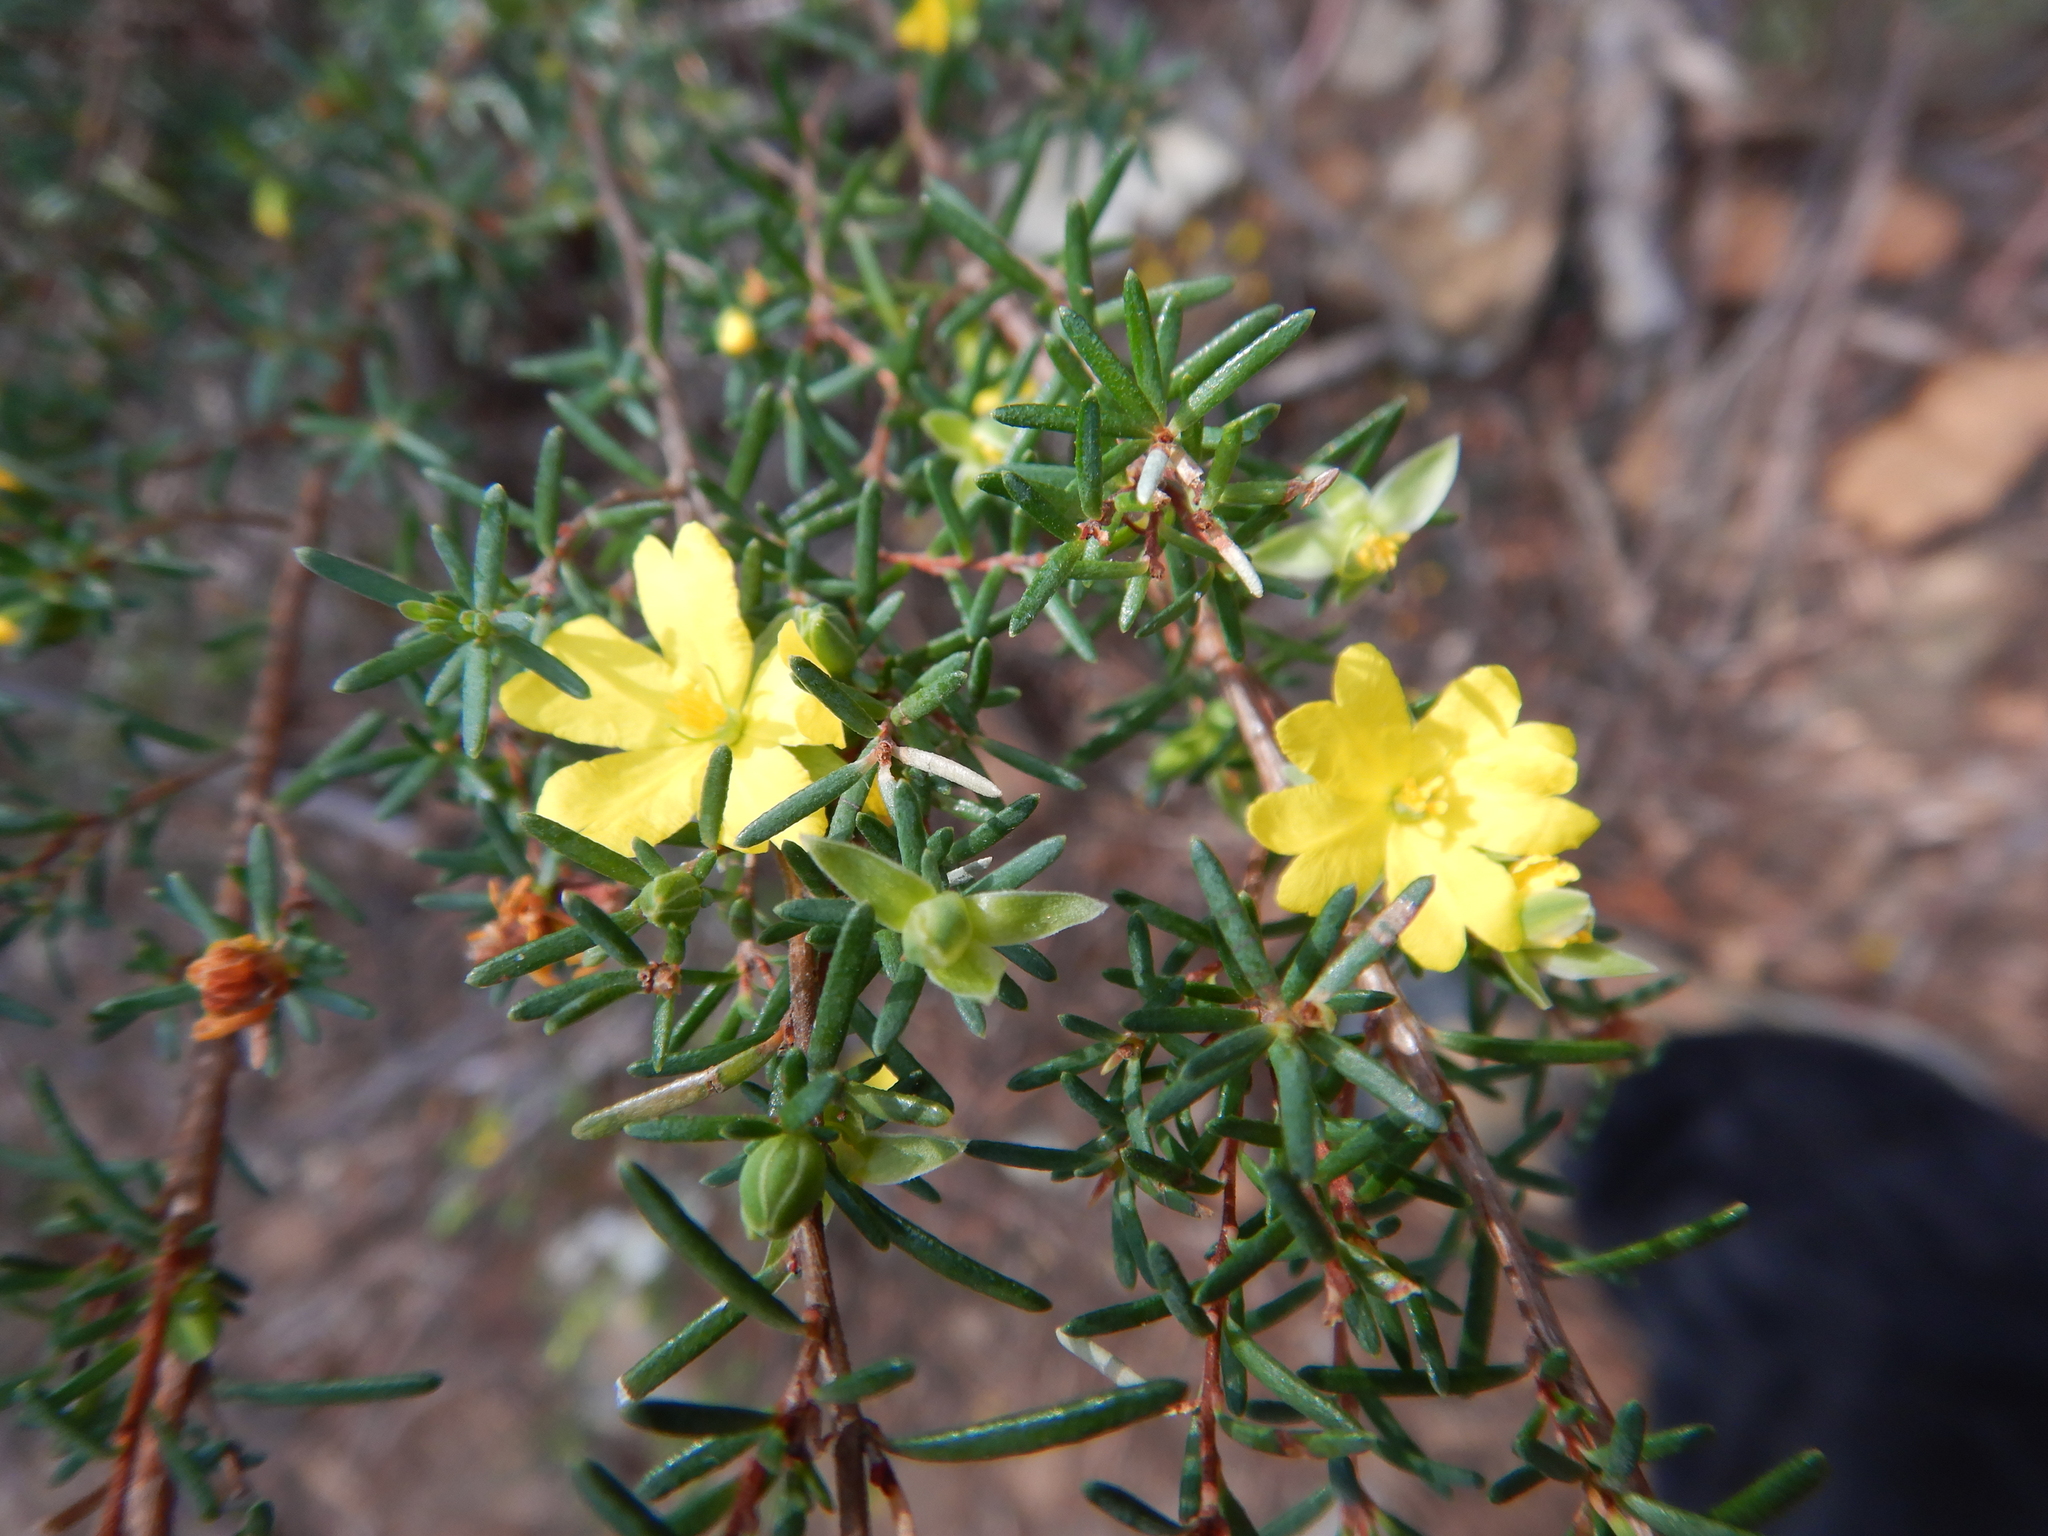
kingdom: Plantae
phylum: Tracheophyta
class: Magnoliopsida
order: Dilleniales
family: Dilleniaceae
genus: Hibbertia
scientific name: Hibbertia riparia
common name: Erect guinea-flower
